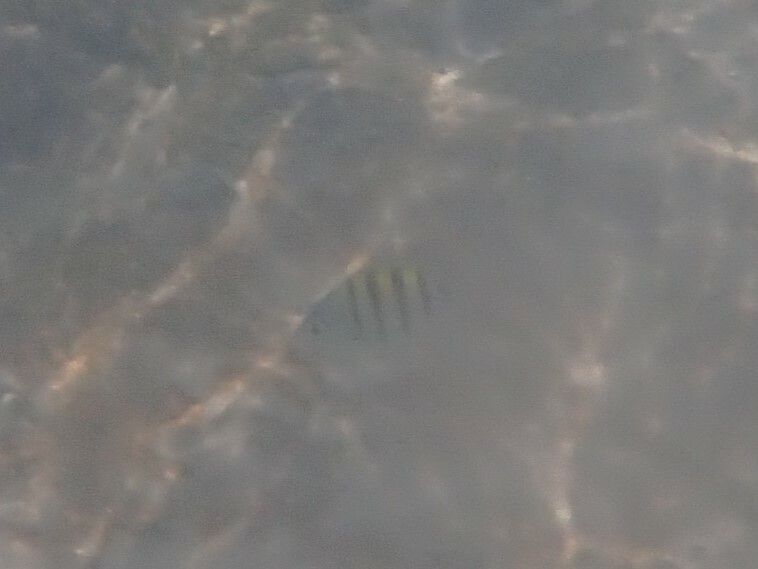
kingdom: Animalia
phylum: Chordata
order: Perciformes
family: Pomacentridae
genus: Abudefduf
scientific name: Abudefduf saxatilis
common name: Sergeant major
